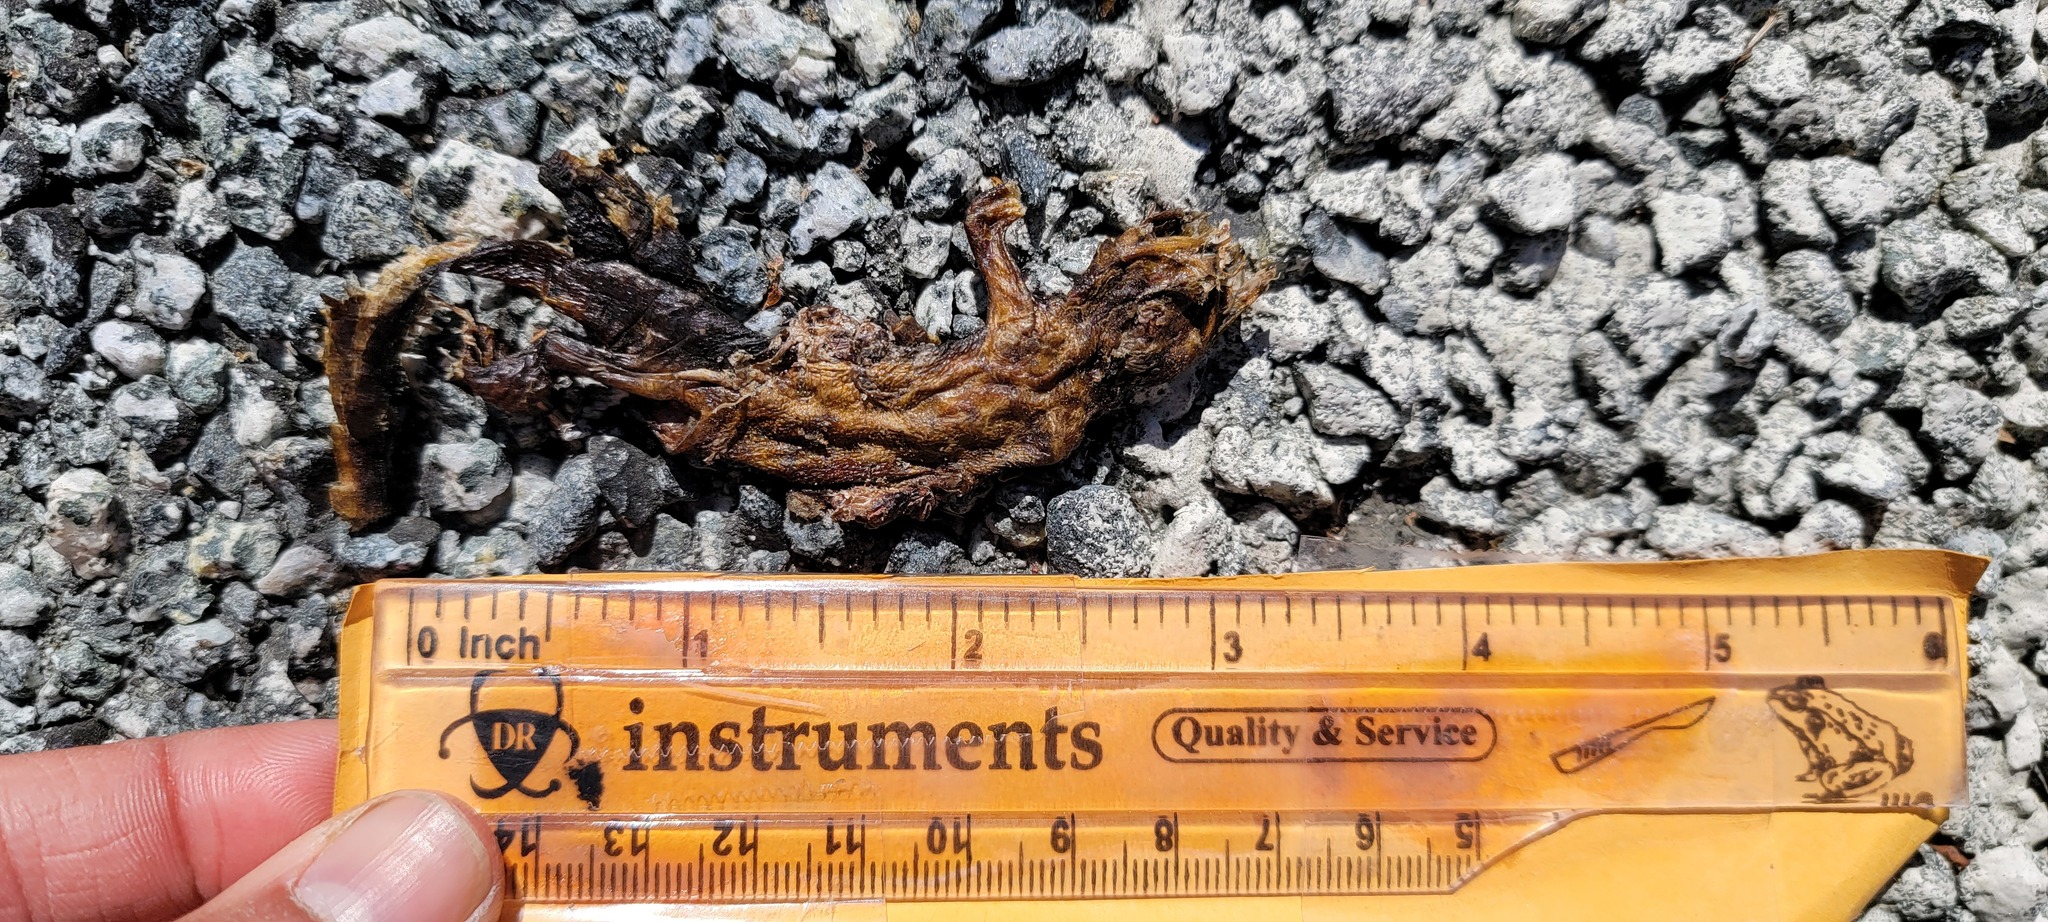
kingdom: Animalia
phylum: Chordata
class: Amphibia
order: Caudata
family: Salamandridae
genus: Taricha
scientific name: Taricha
